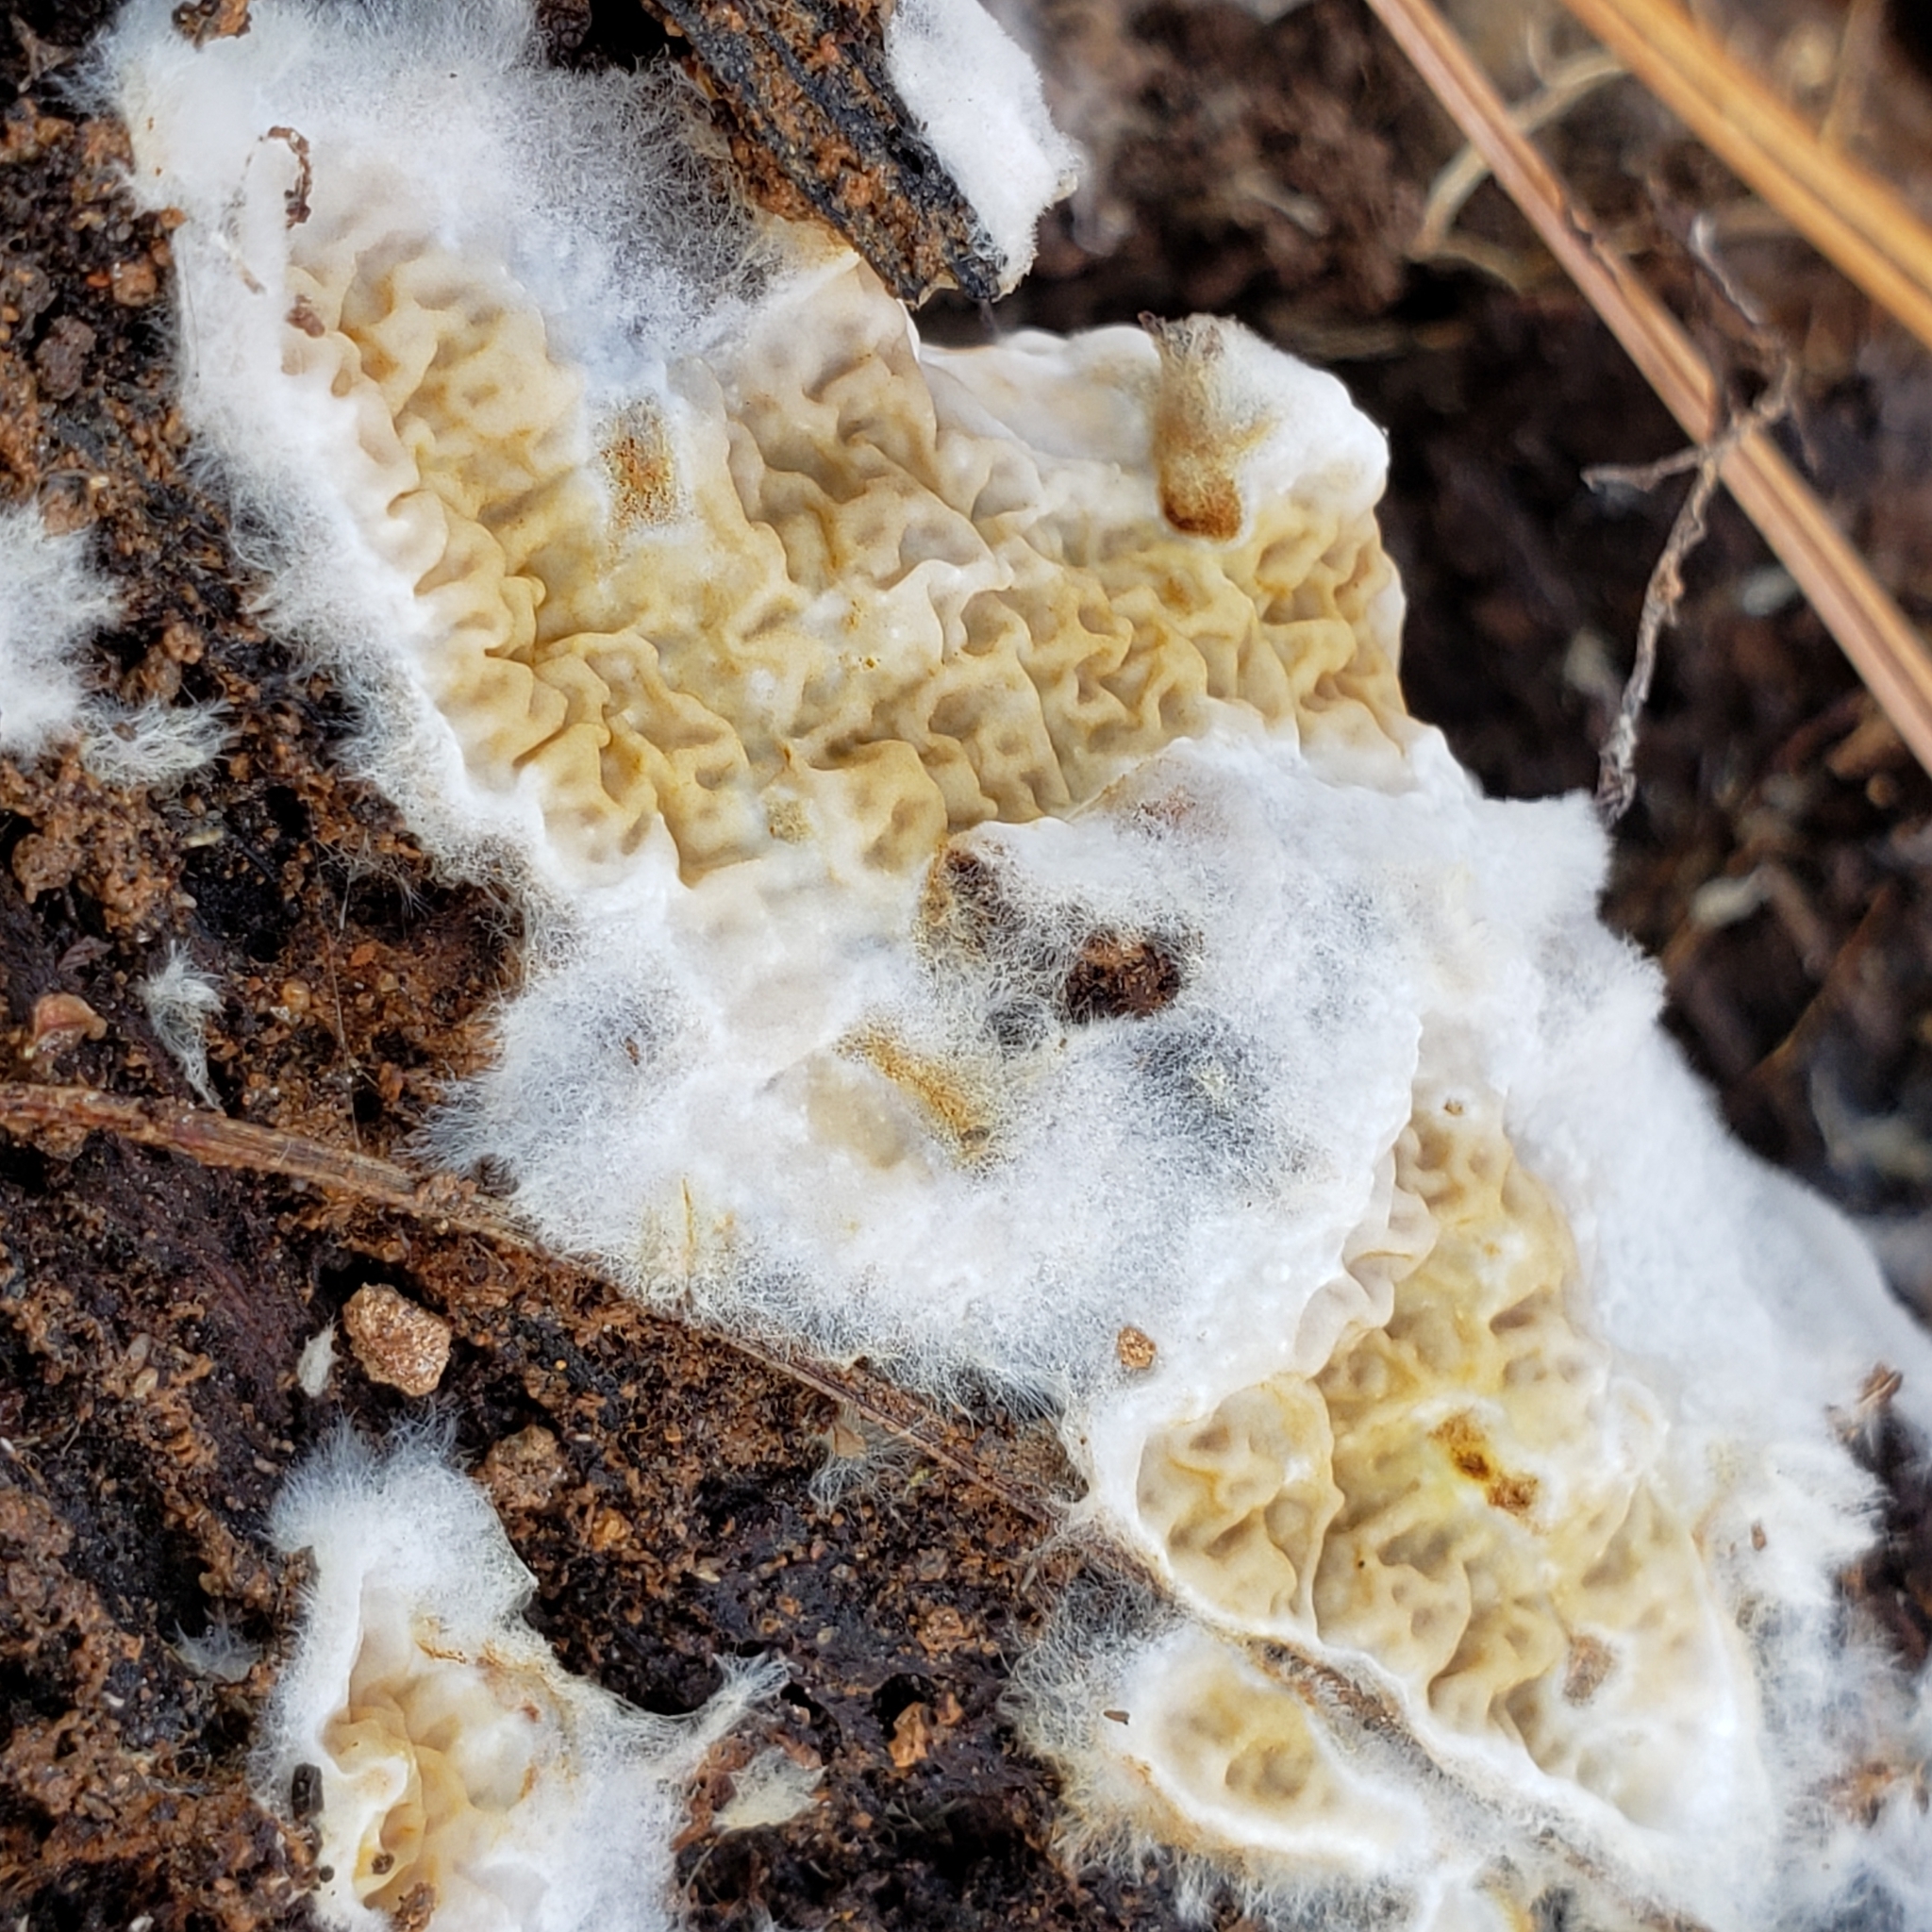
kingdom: Fungi
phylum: Basidiomycota
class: Agaricomycetes
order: Boletales
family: Serpulaceae
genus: Serpula
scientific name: Serpula himantioides
